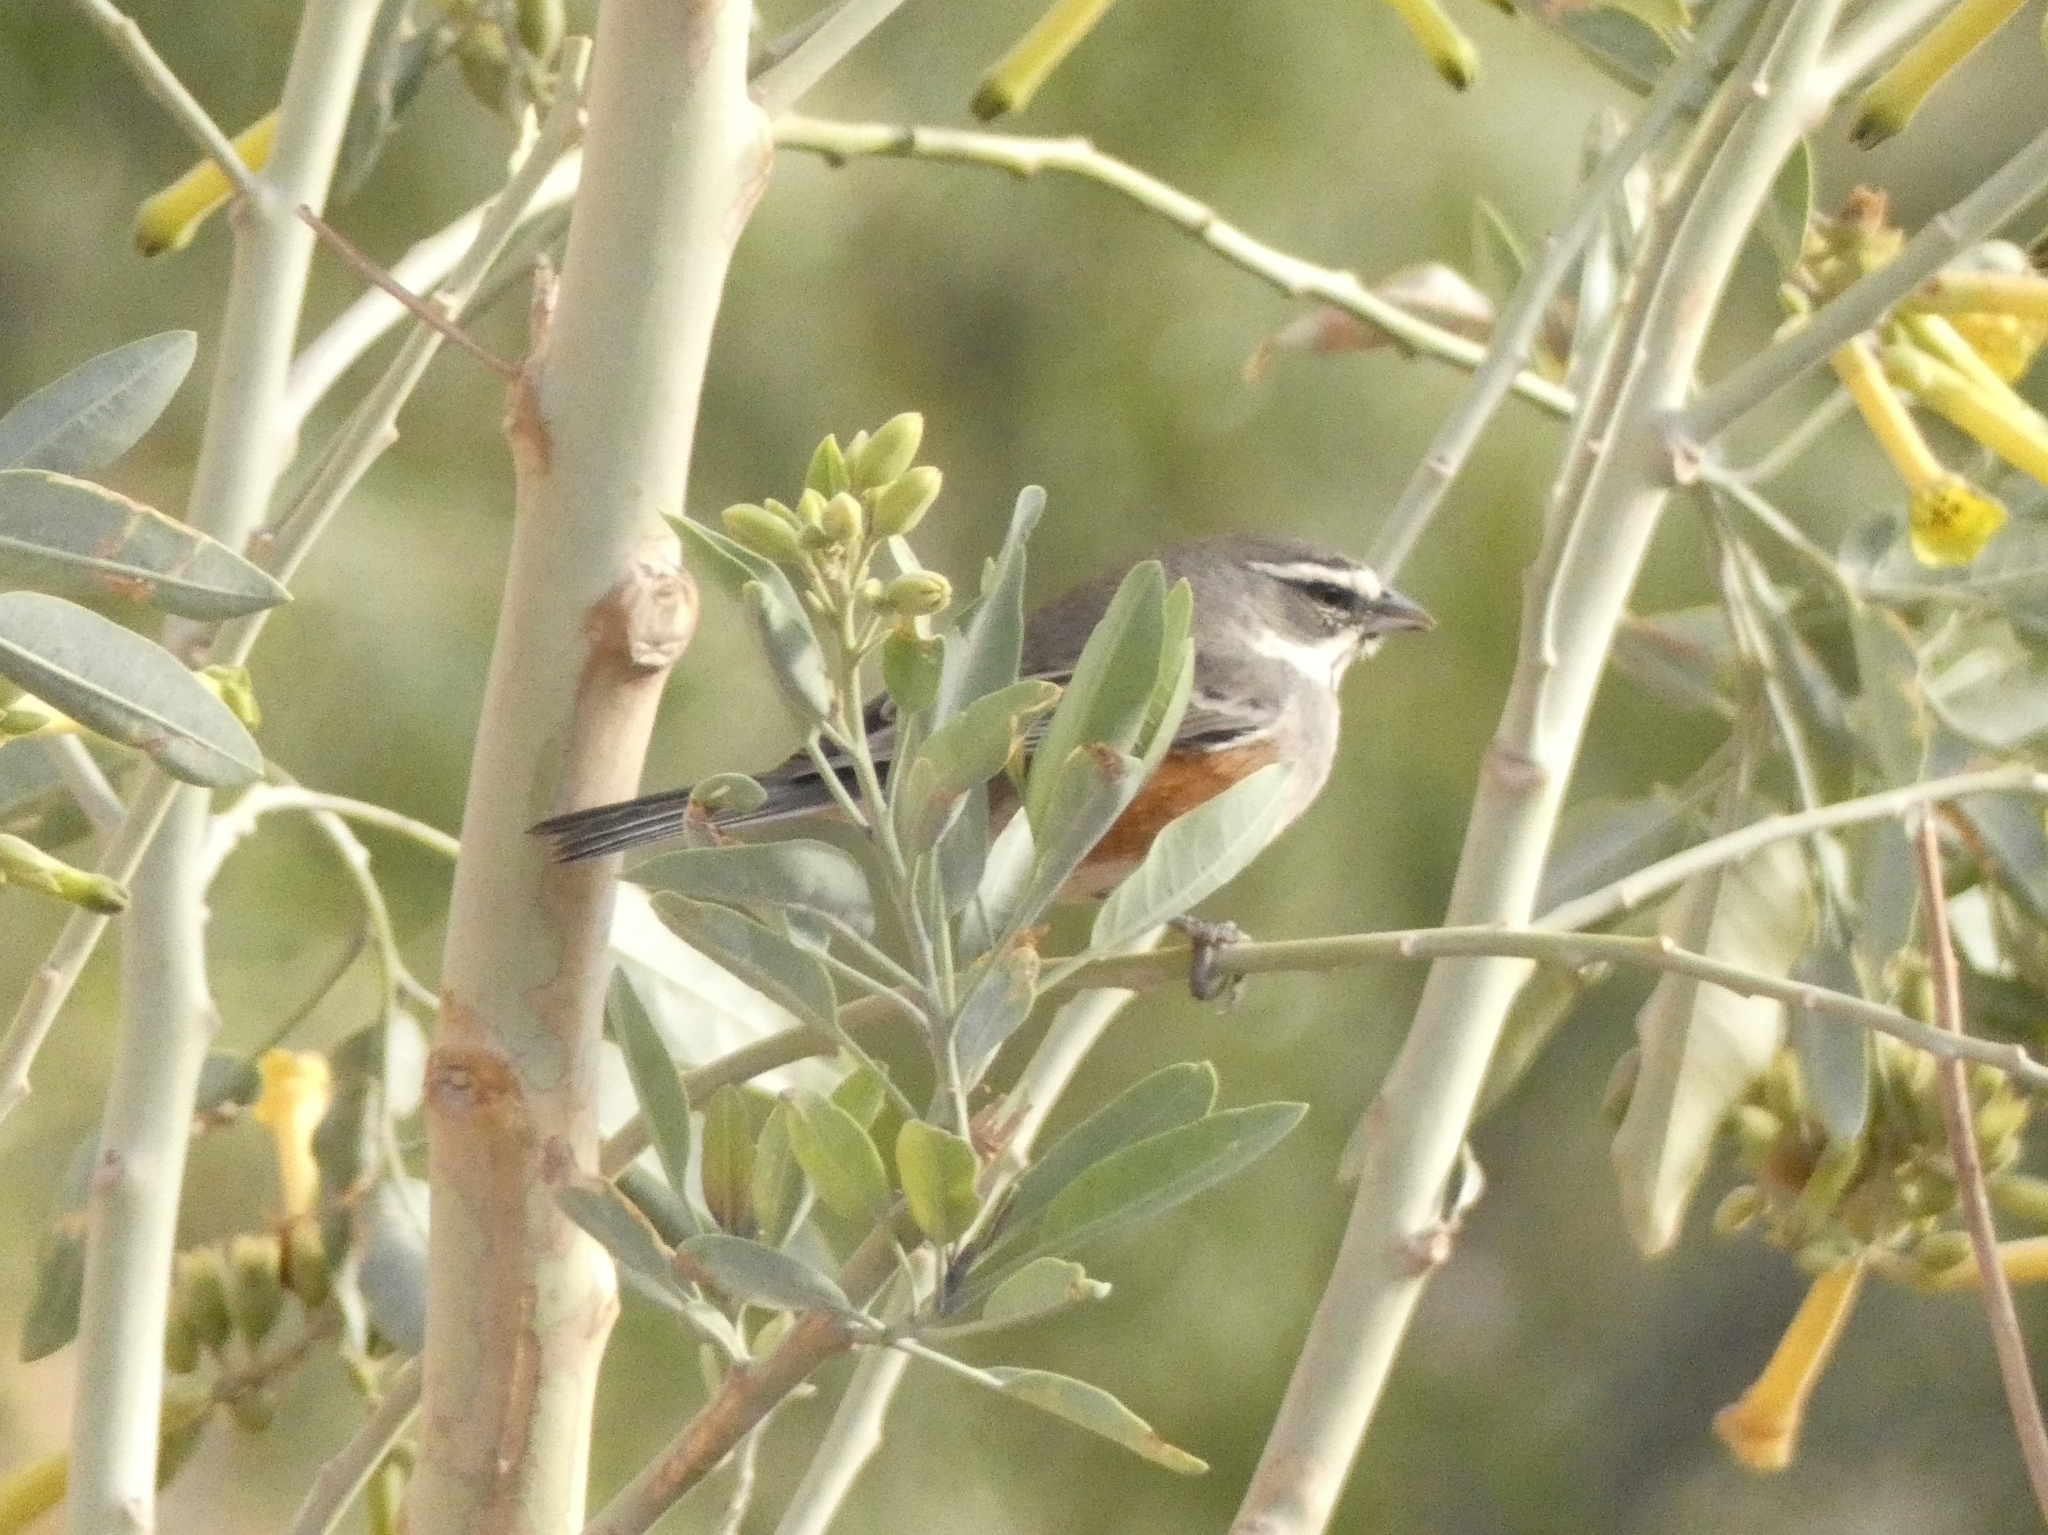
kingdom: Animalia
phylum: Chordata
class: Aves
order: Passeriformes
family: Thraupidae
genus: Poospizopsis
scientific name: Poospizopsis hypocondria
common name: Rufous-sided warbling-finch
